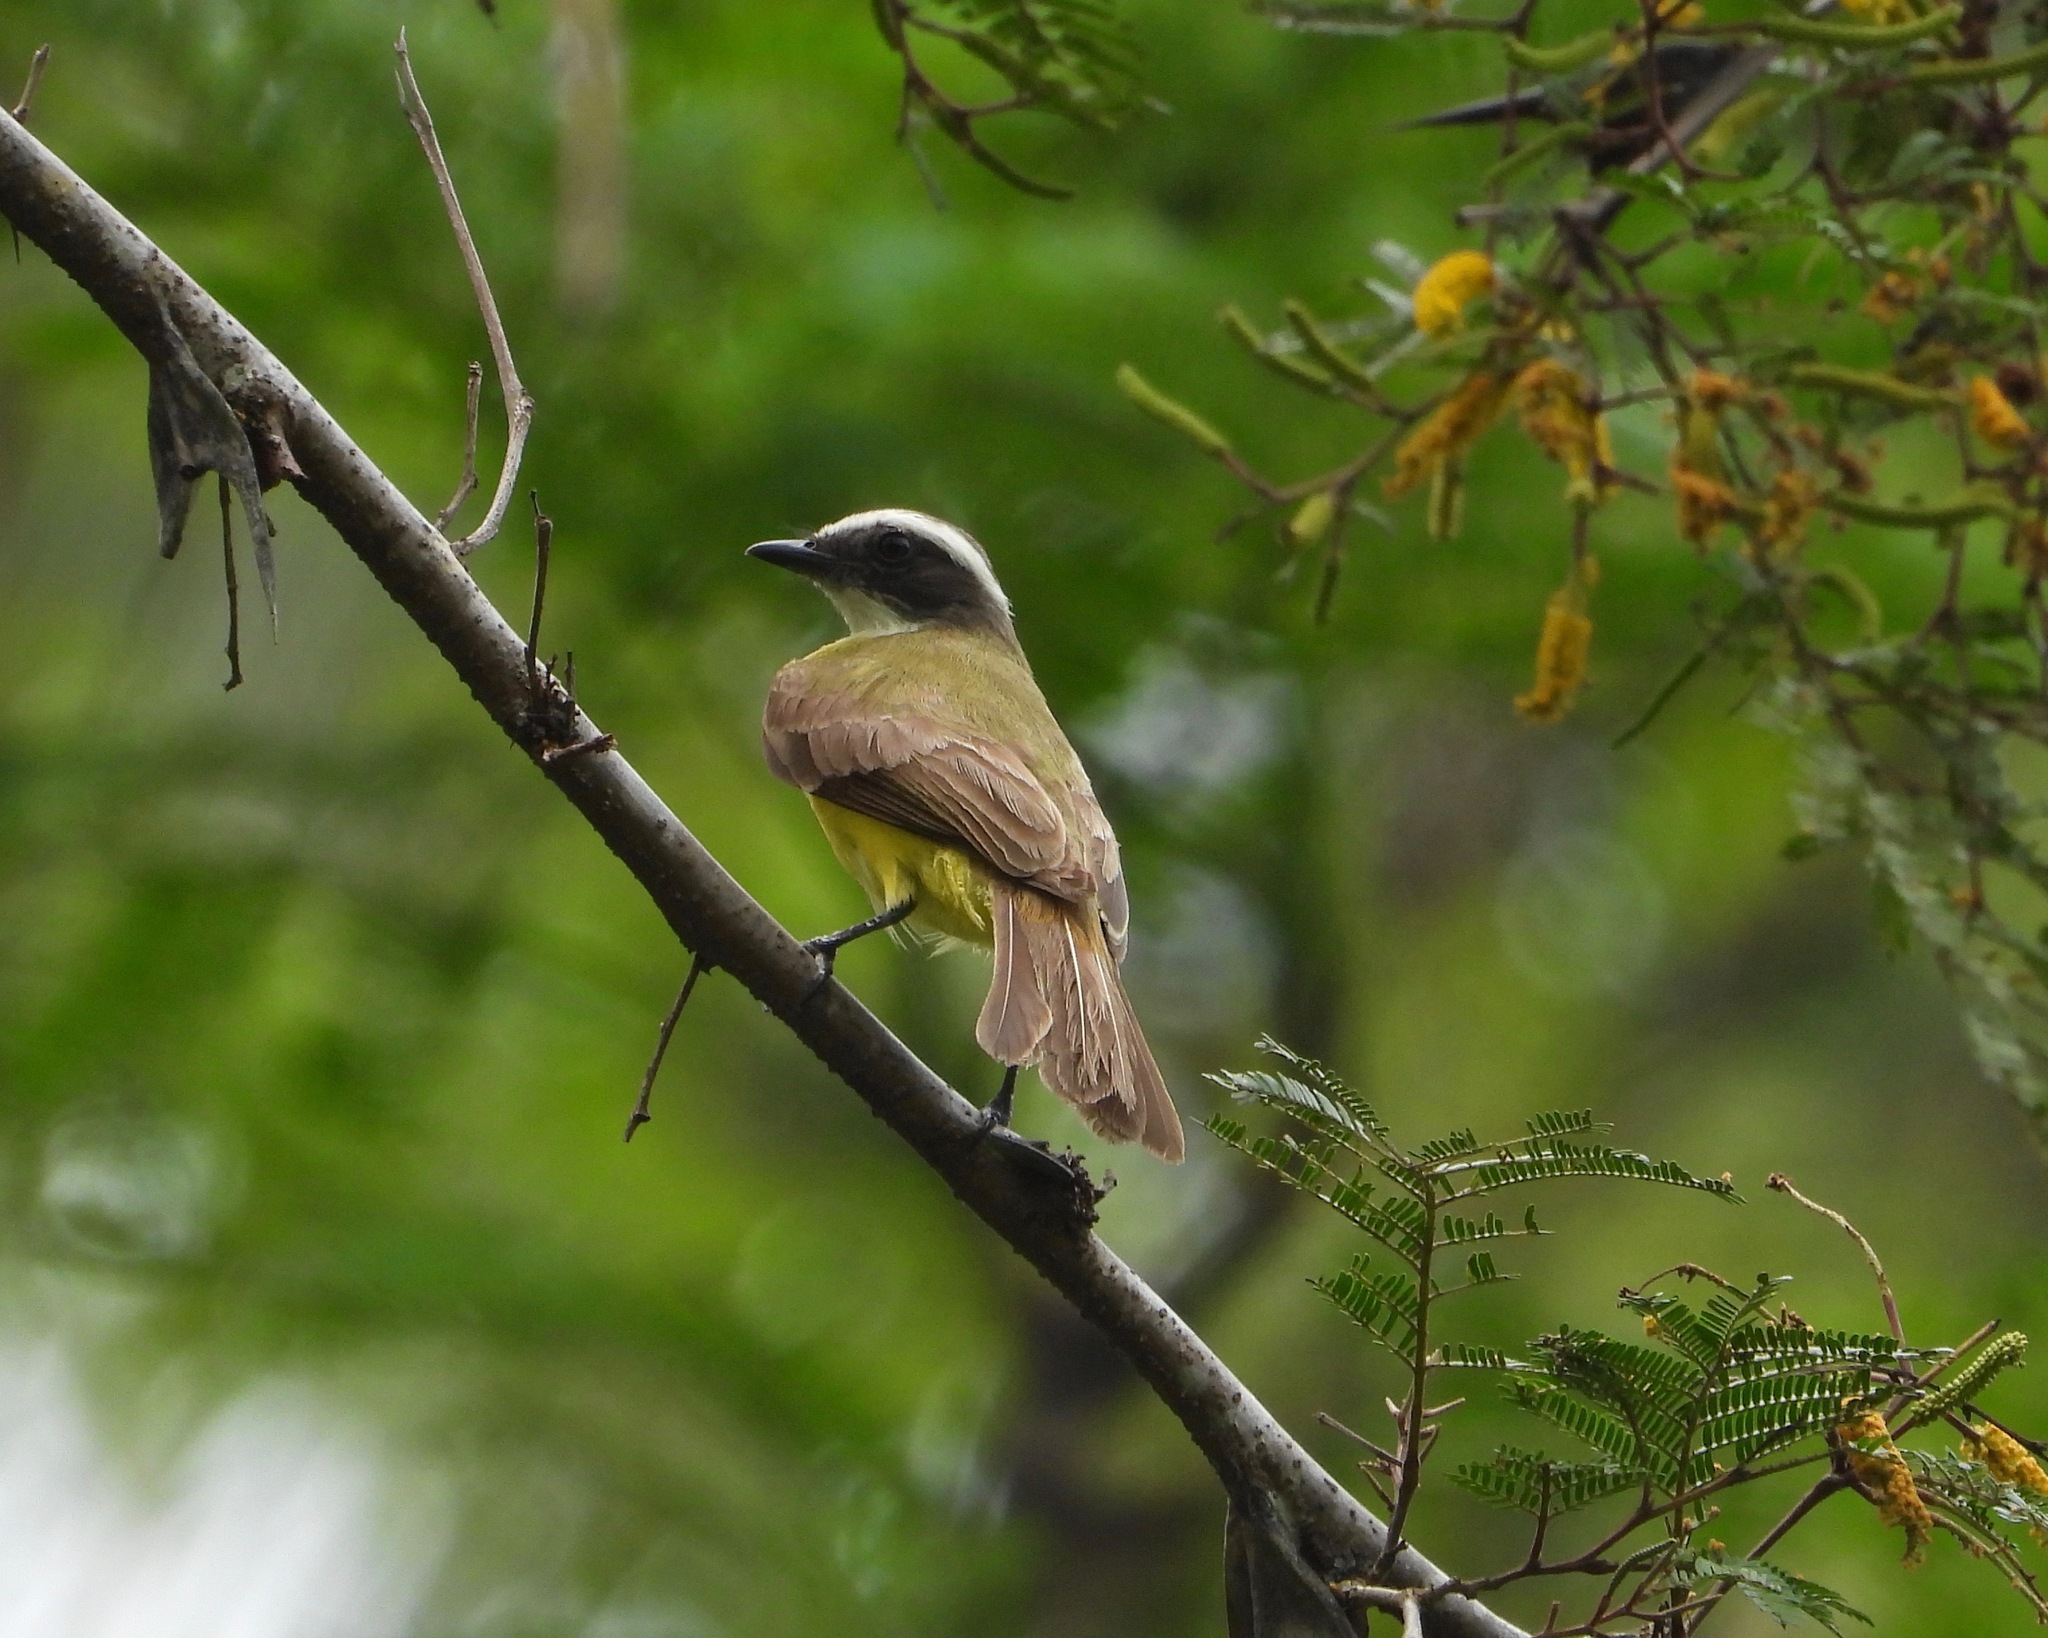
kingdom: Animalia
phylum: Chordata
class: Aves
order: Passeriformes
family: Tyrannidae
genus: Myiozetetes
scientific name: Myiozetetes similis
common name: Social flycatcher
